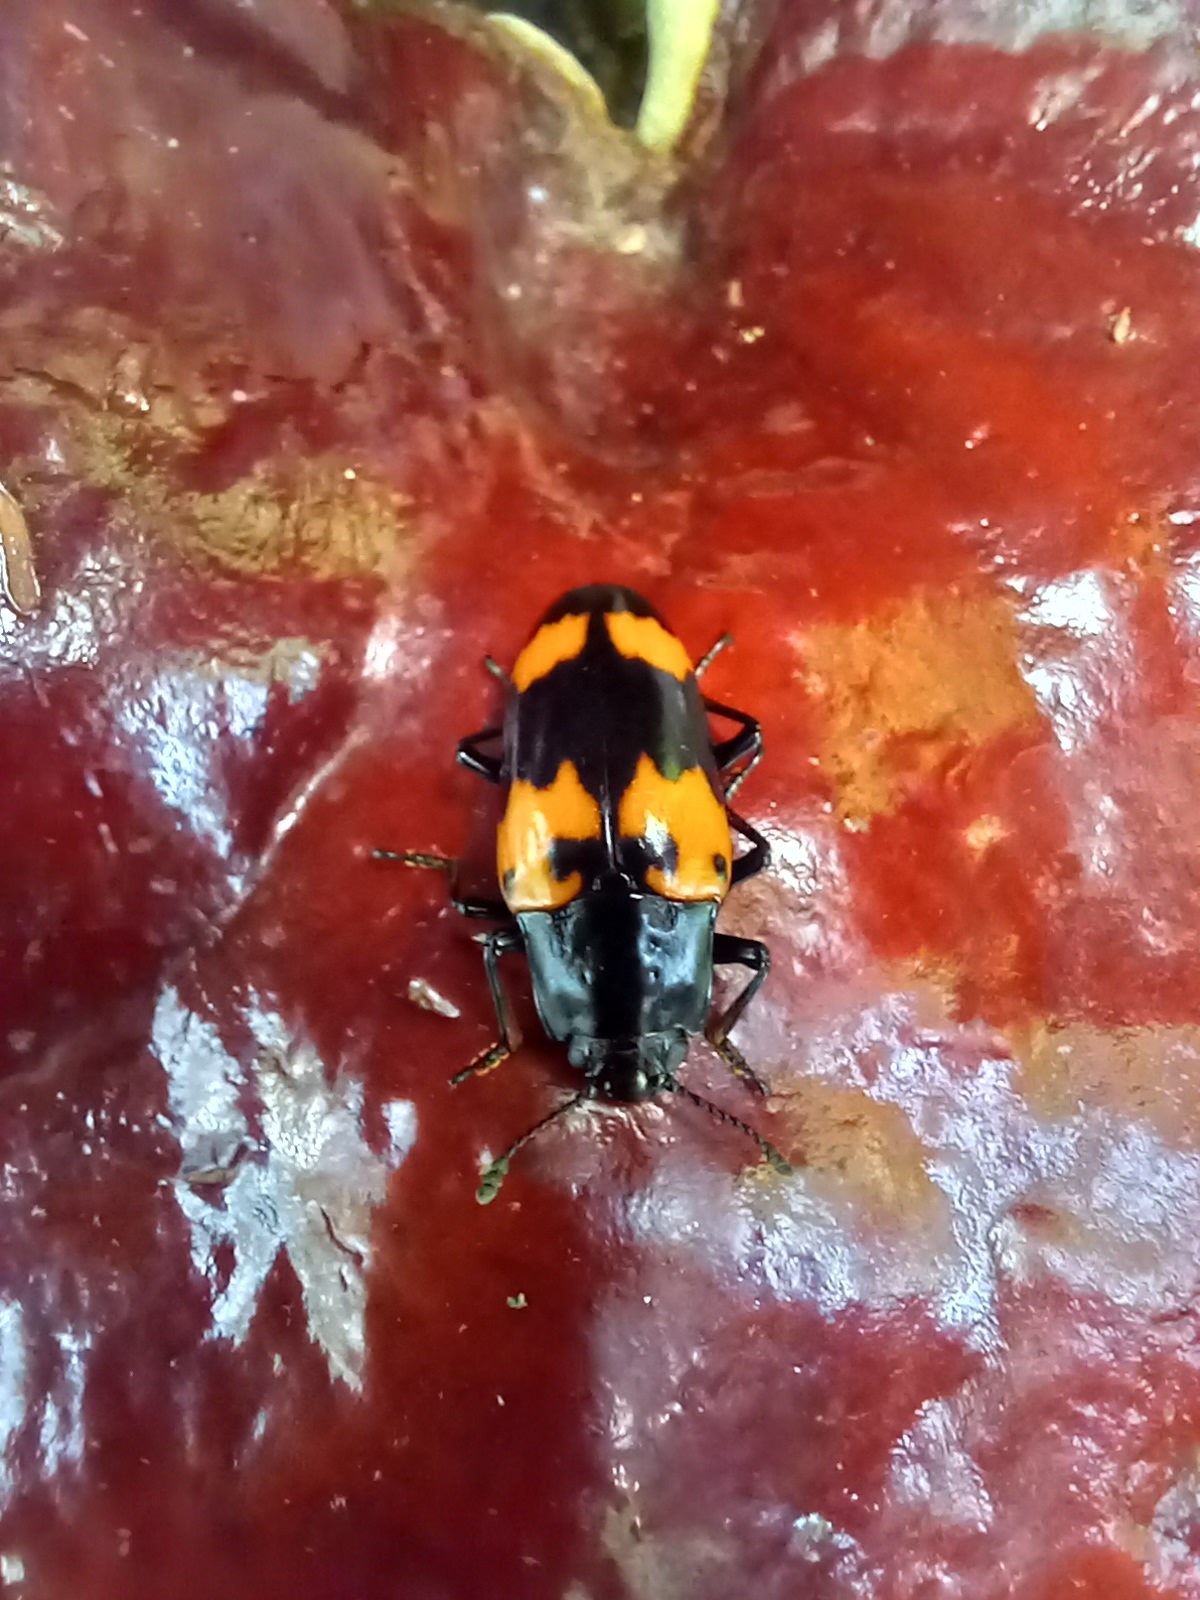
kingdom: Animalia
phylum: Arthropoda
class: Insecta
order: Coleoptera
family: Erotylidae
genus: Megalodacne
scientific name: Megalodacne heros
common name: Pleasing fungus beetle
